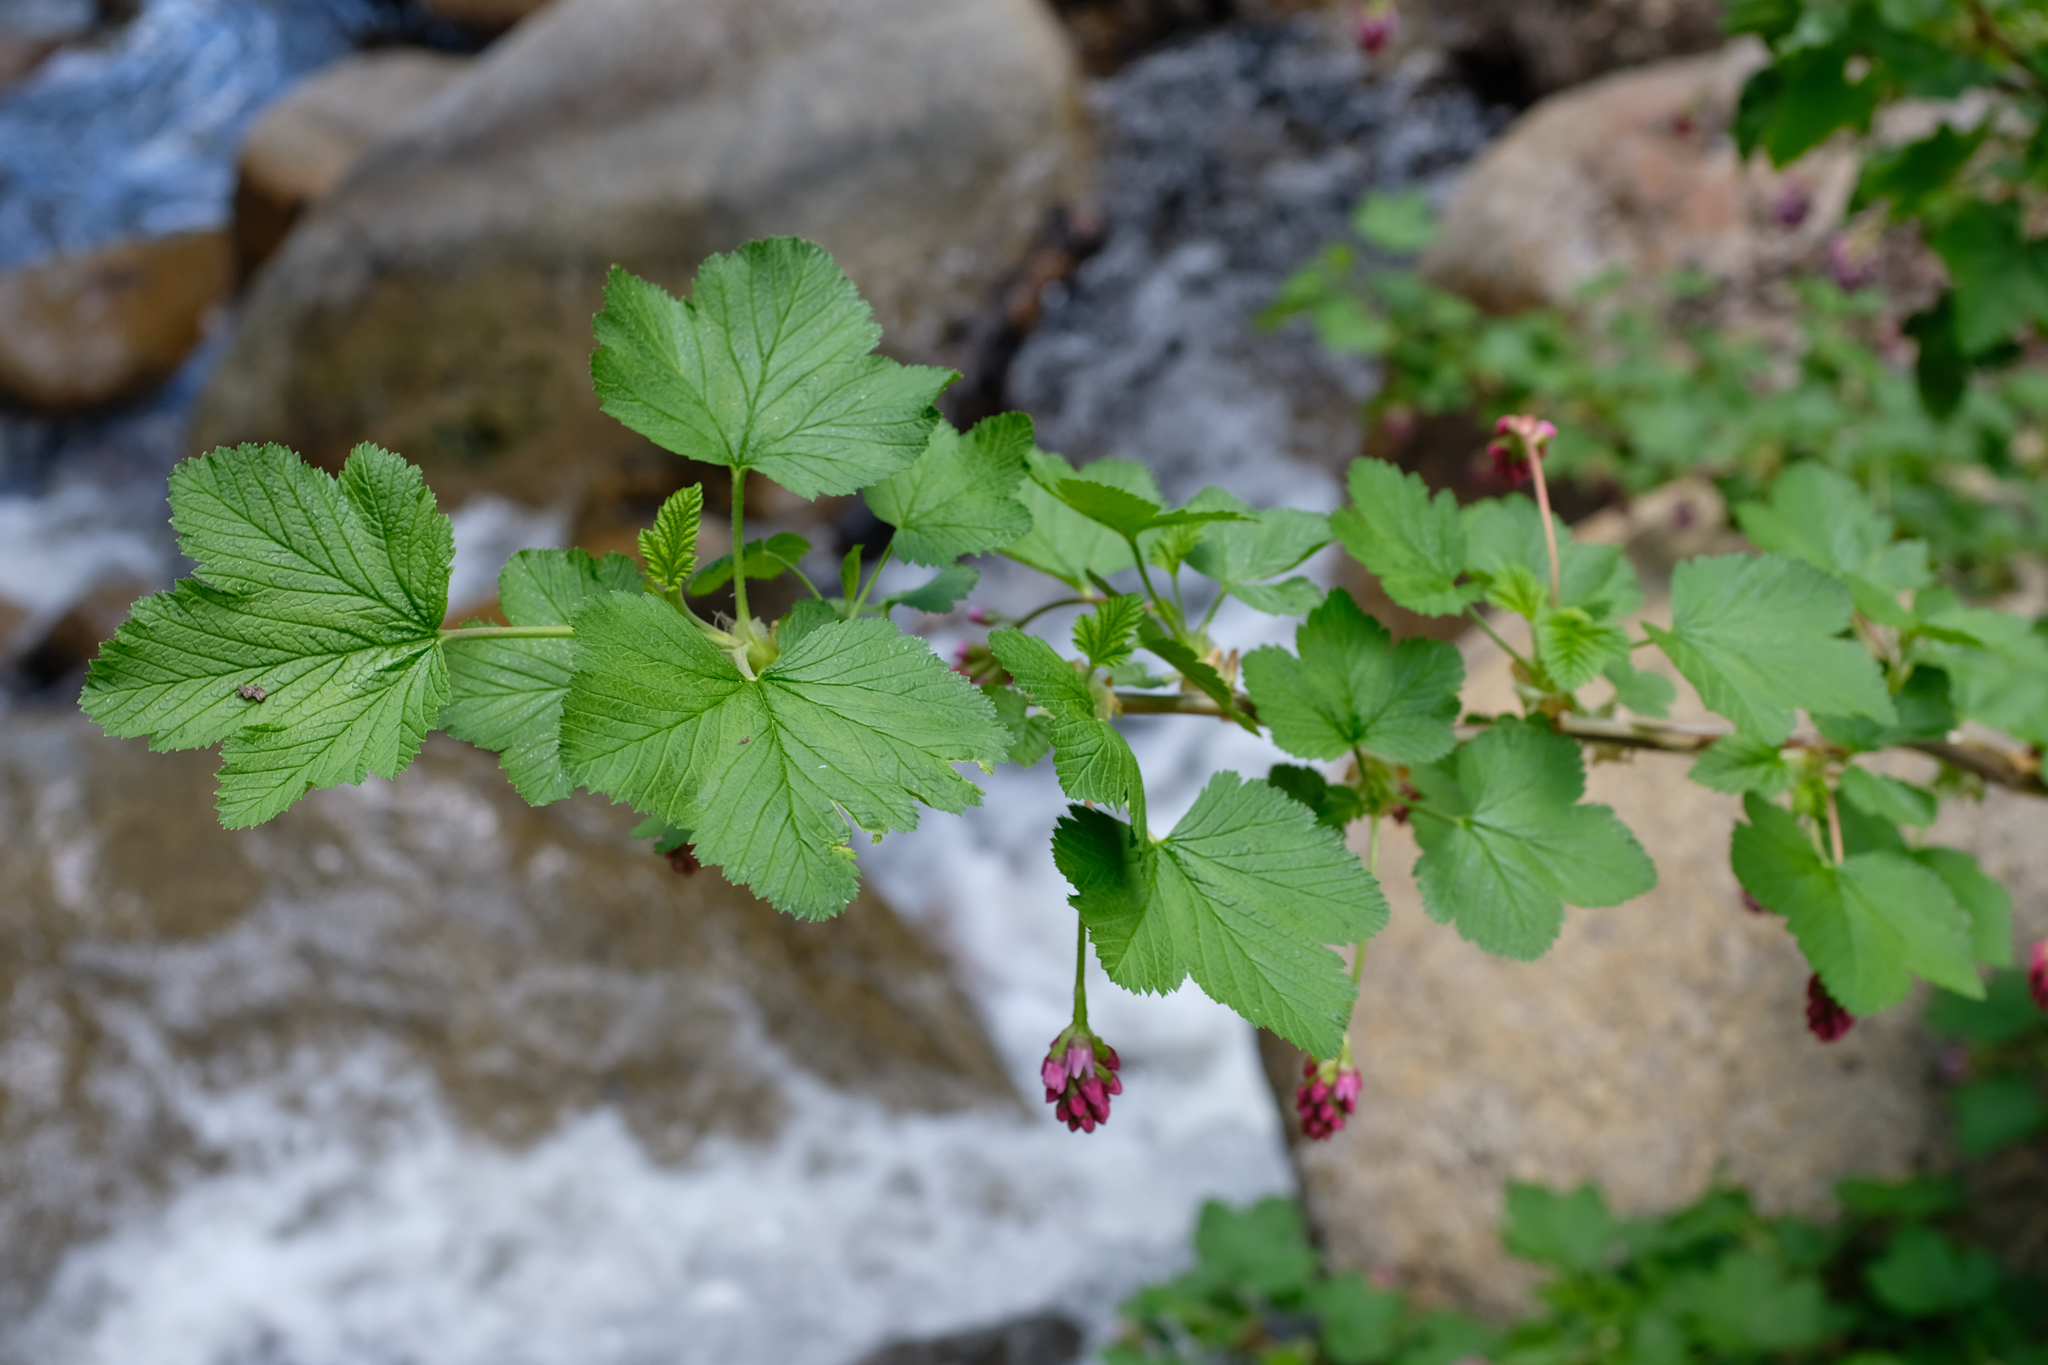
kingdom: Plantae
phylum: Tracheophyta
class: Magnoliopsida
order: Saxifragales
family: Grossulariaceae
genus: Ribes
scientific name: Ribes nevadense
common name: Mountain pink currant
